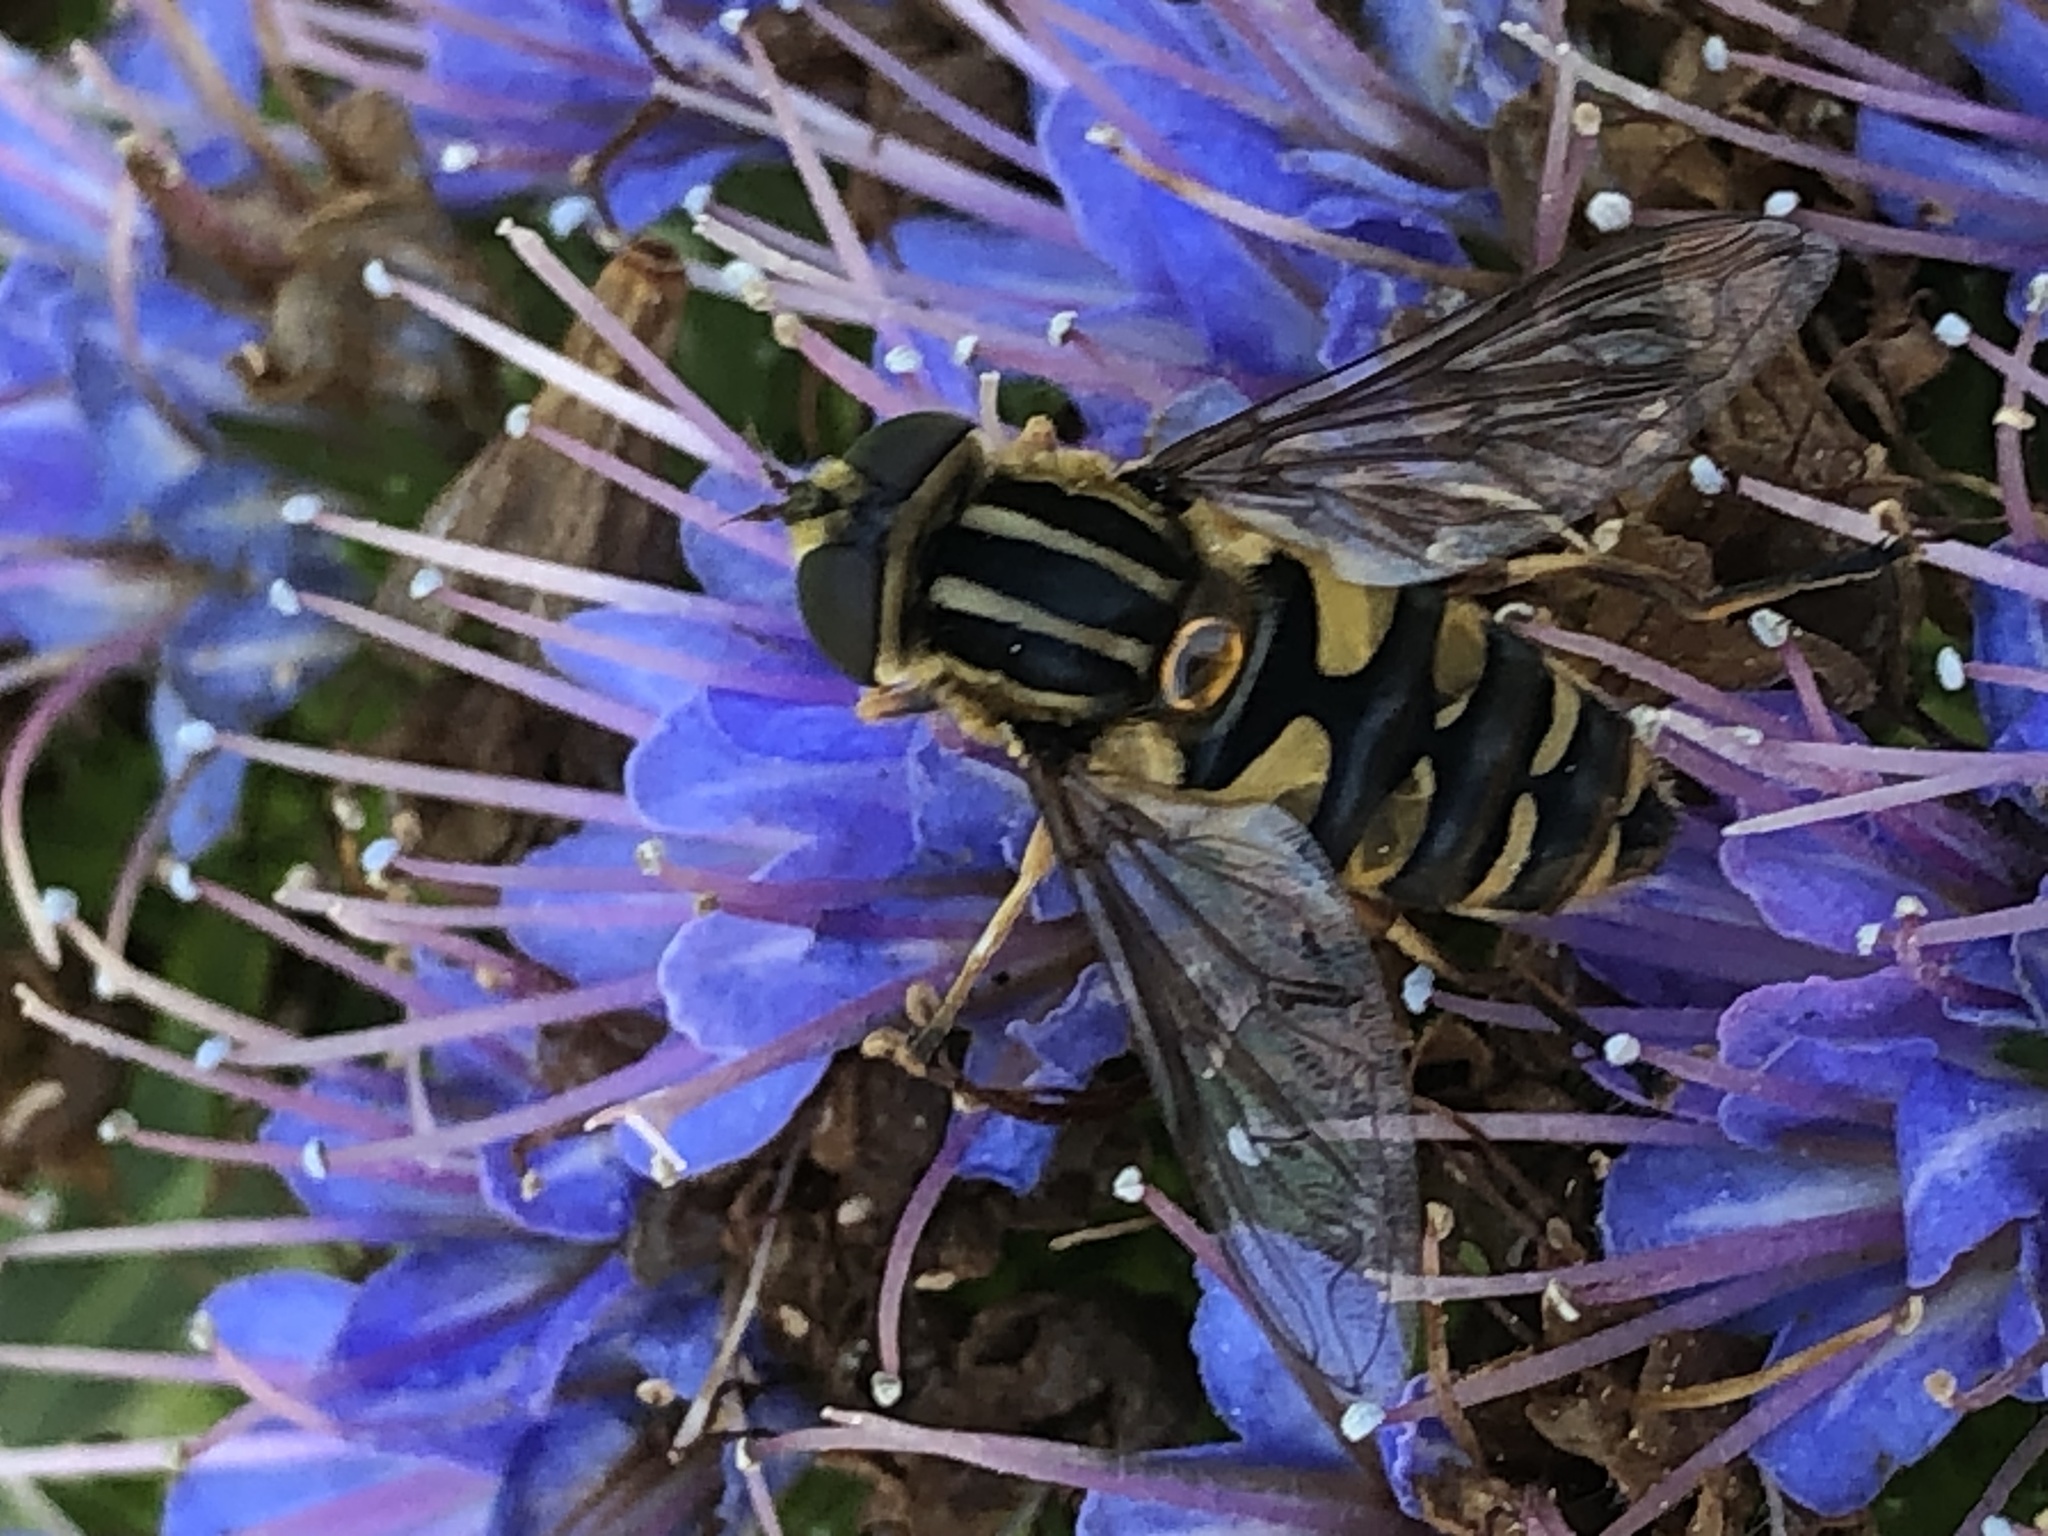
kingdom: Animalia
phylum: Arthropoda
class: Insecta
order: Diptera
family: Syrphidae
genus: Helophilus
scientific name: Helophilus fasciatus
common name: Narrow-headed marsh fly
